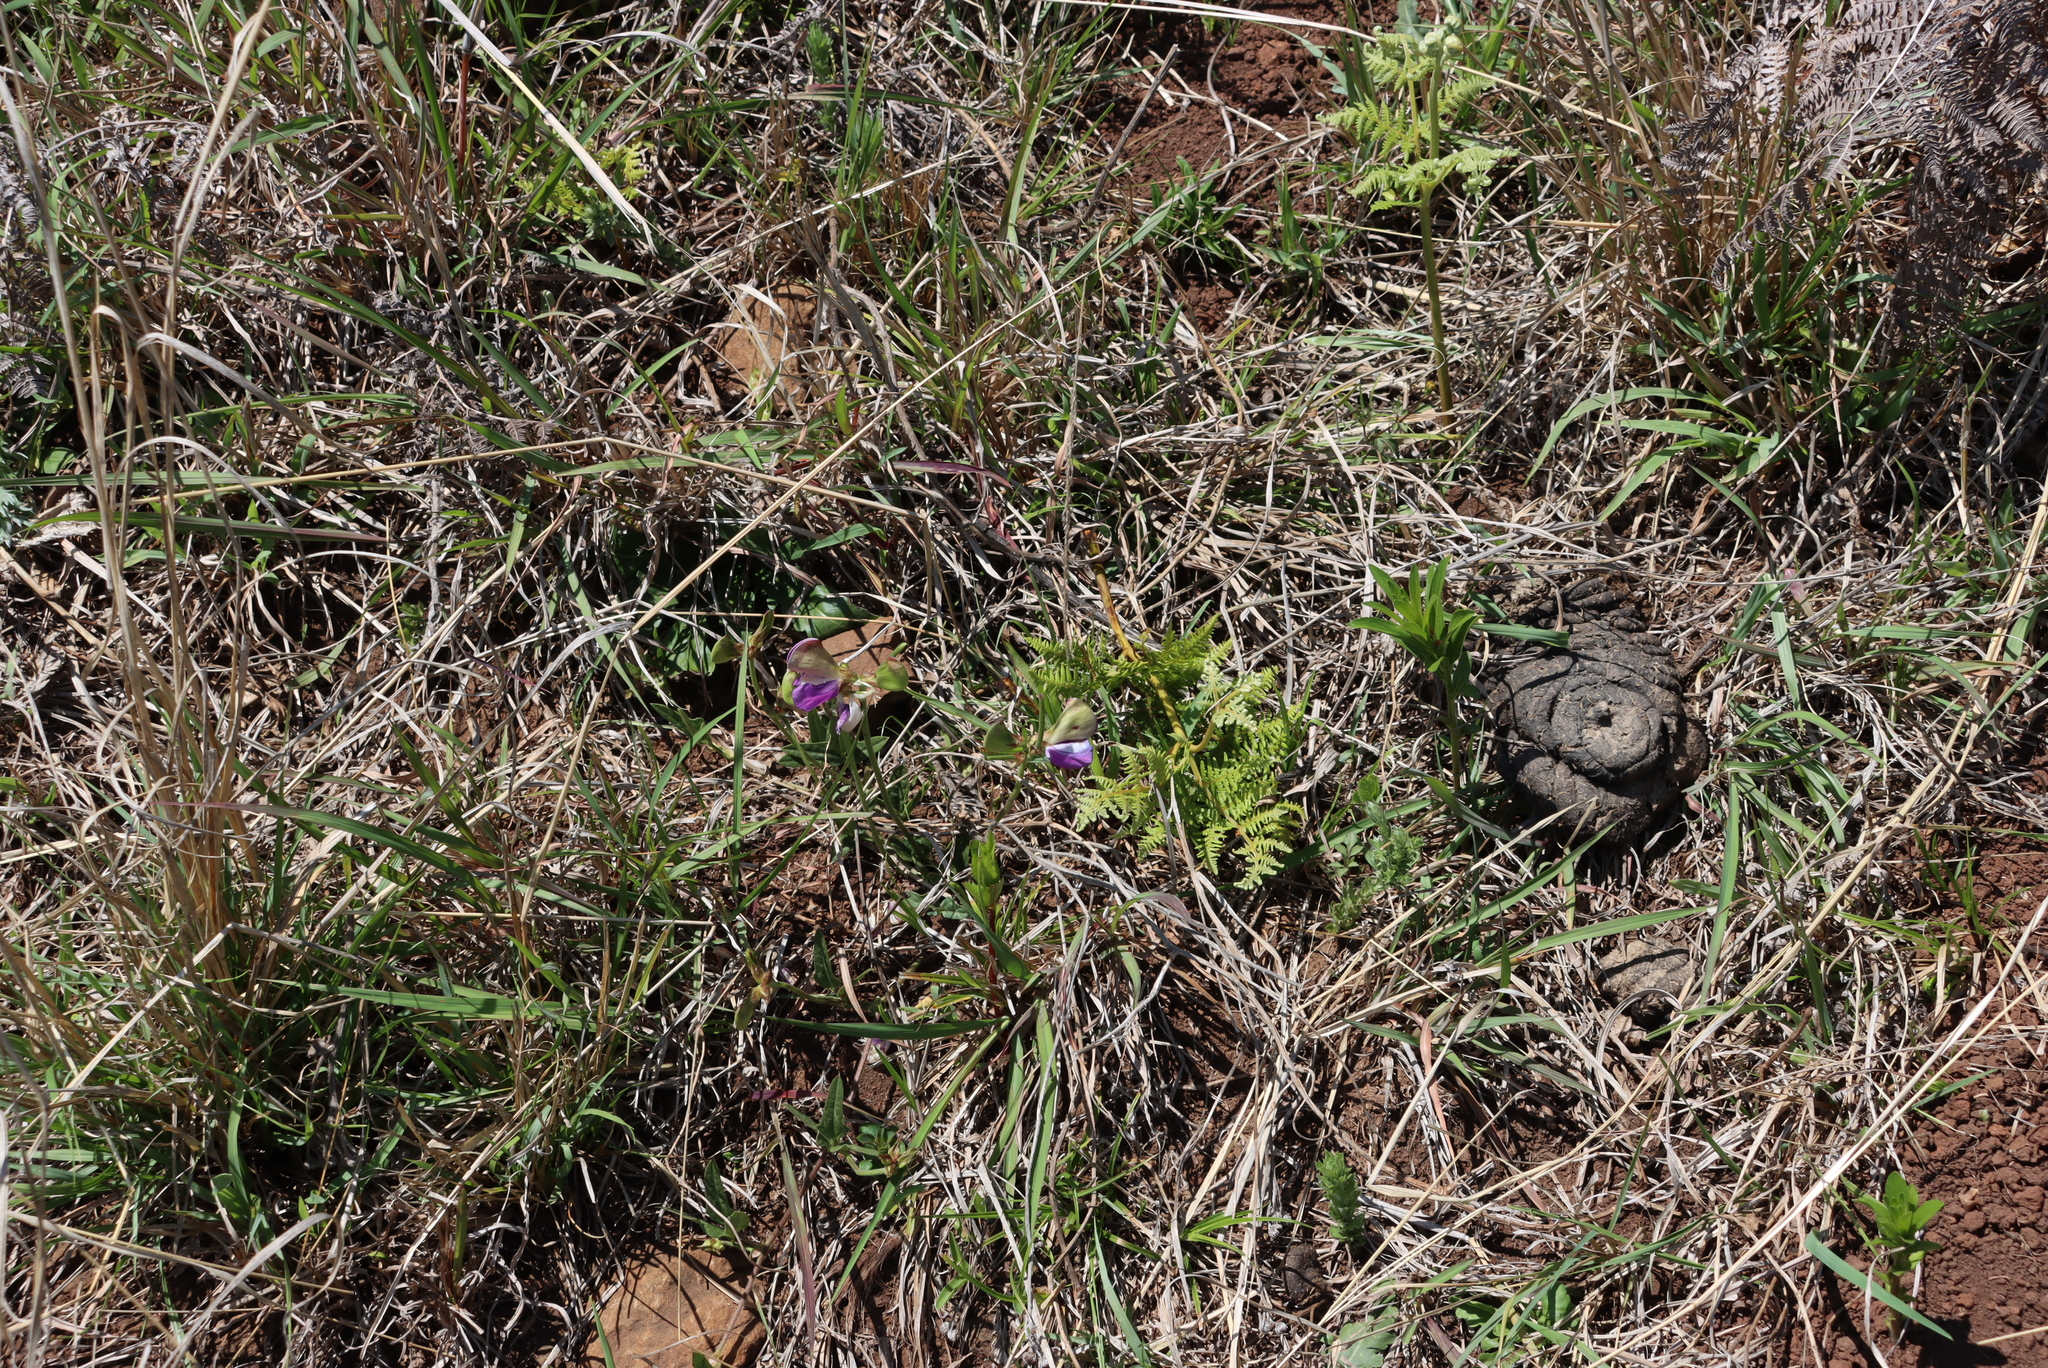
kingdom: Plantae
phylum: Tracheophyta
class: Polypodiopsida
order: Polypodiales
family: Dennstaedtiaceae
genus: Pteridium
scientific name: Pteridium aquilinum
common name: Bracken
